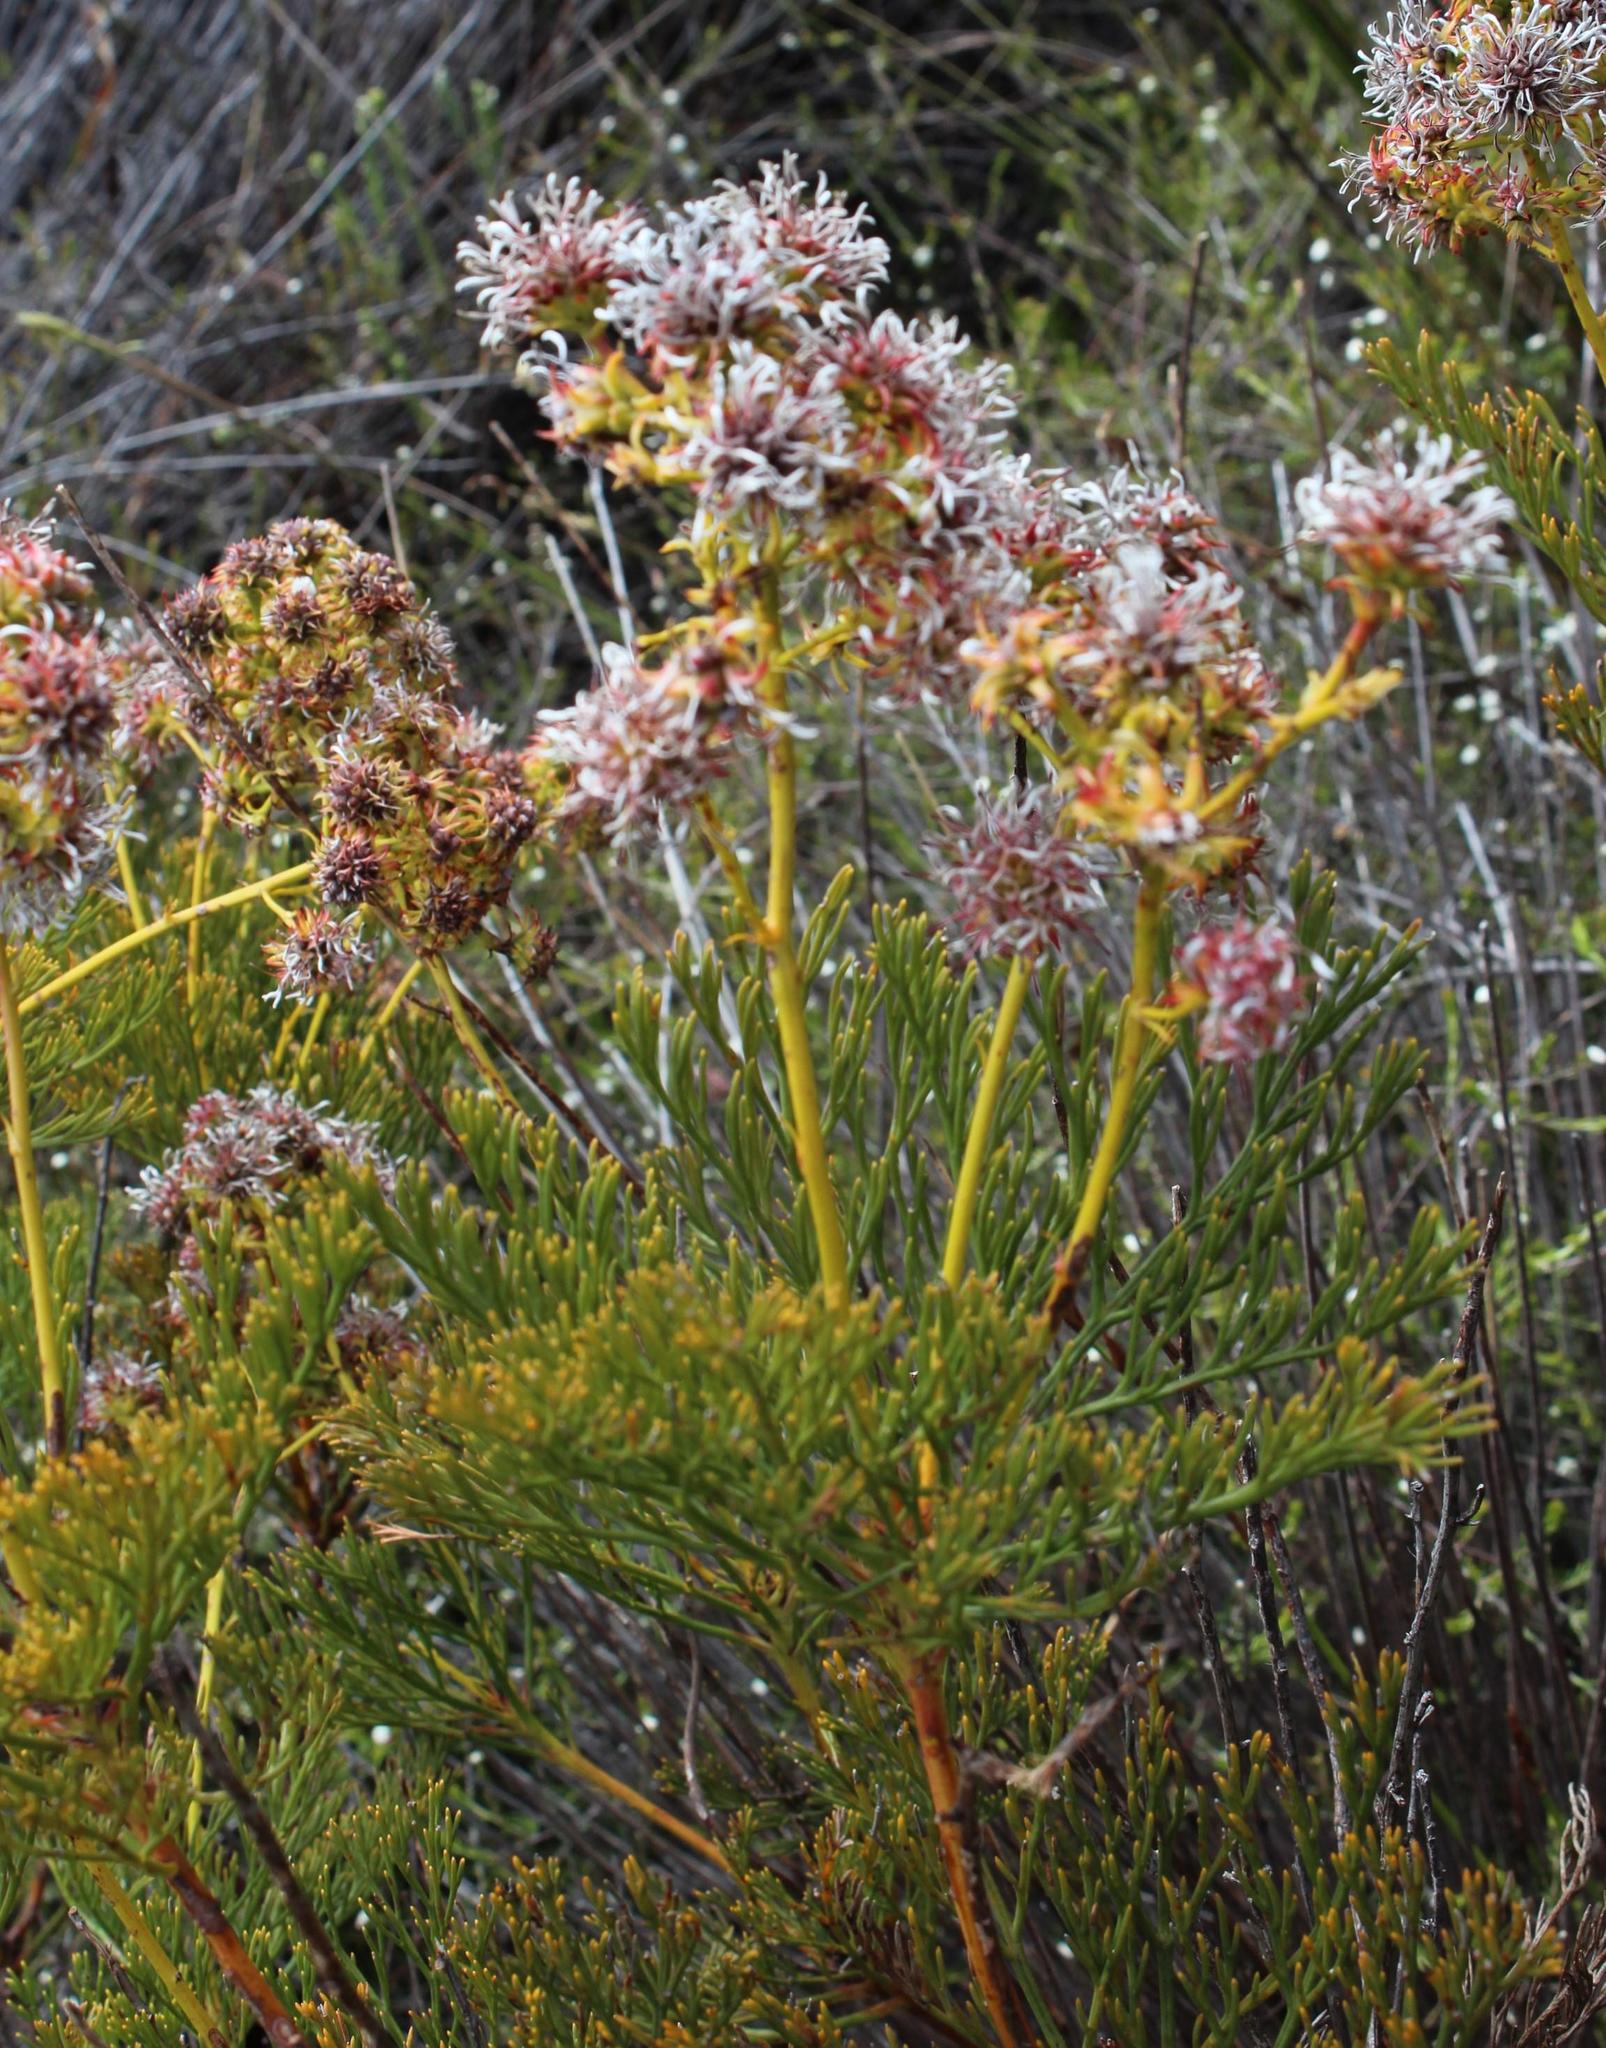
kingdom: Plantae
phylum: Tracheophyta
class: Magnoliopsida
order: Proteales
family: Proteaceae
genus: Serruria
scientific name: Serruria elongata
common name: Long-stalk spiderhead
